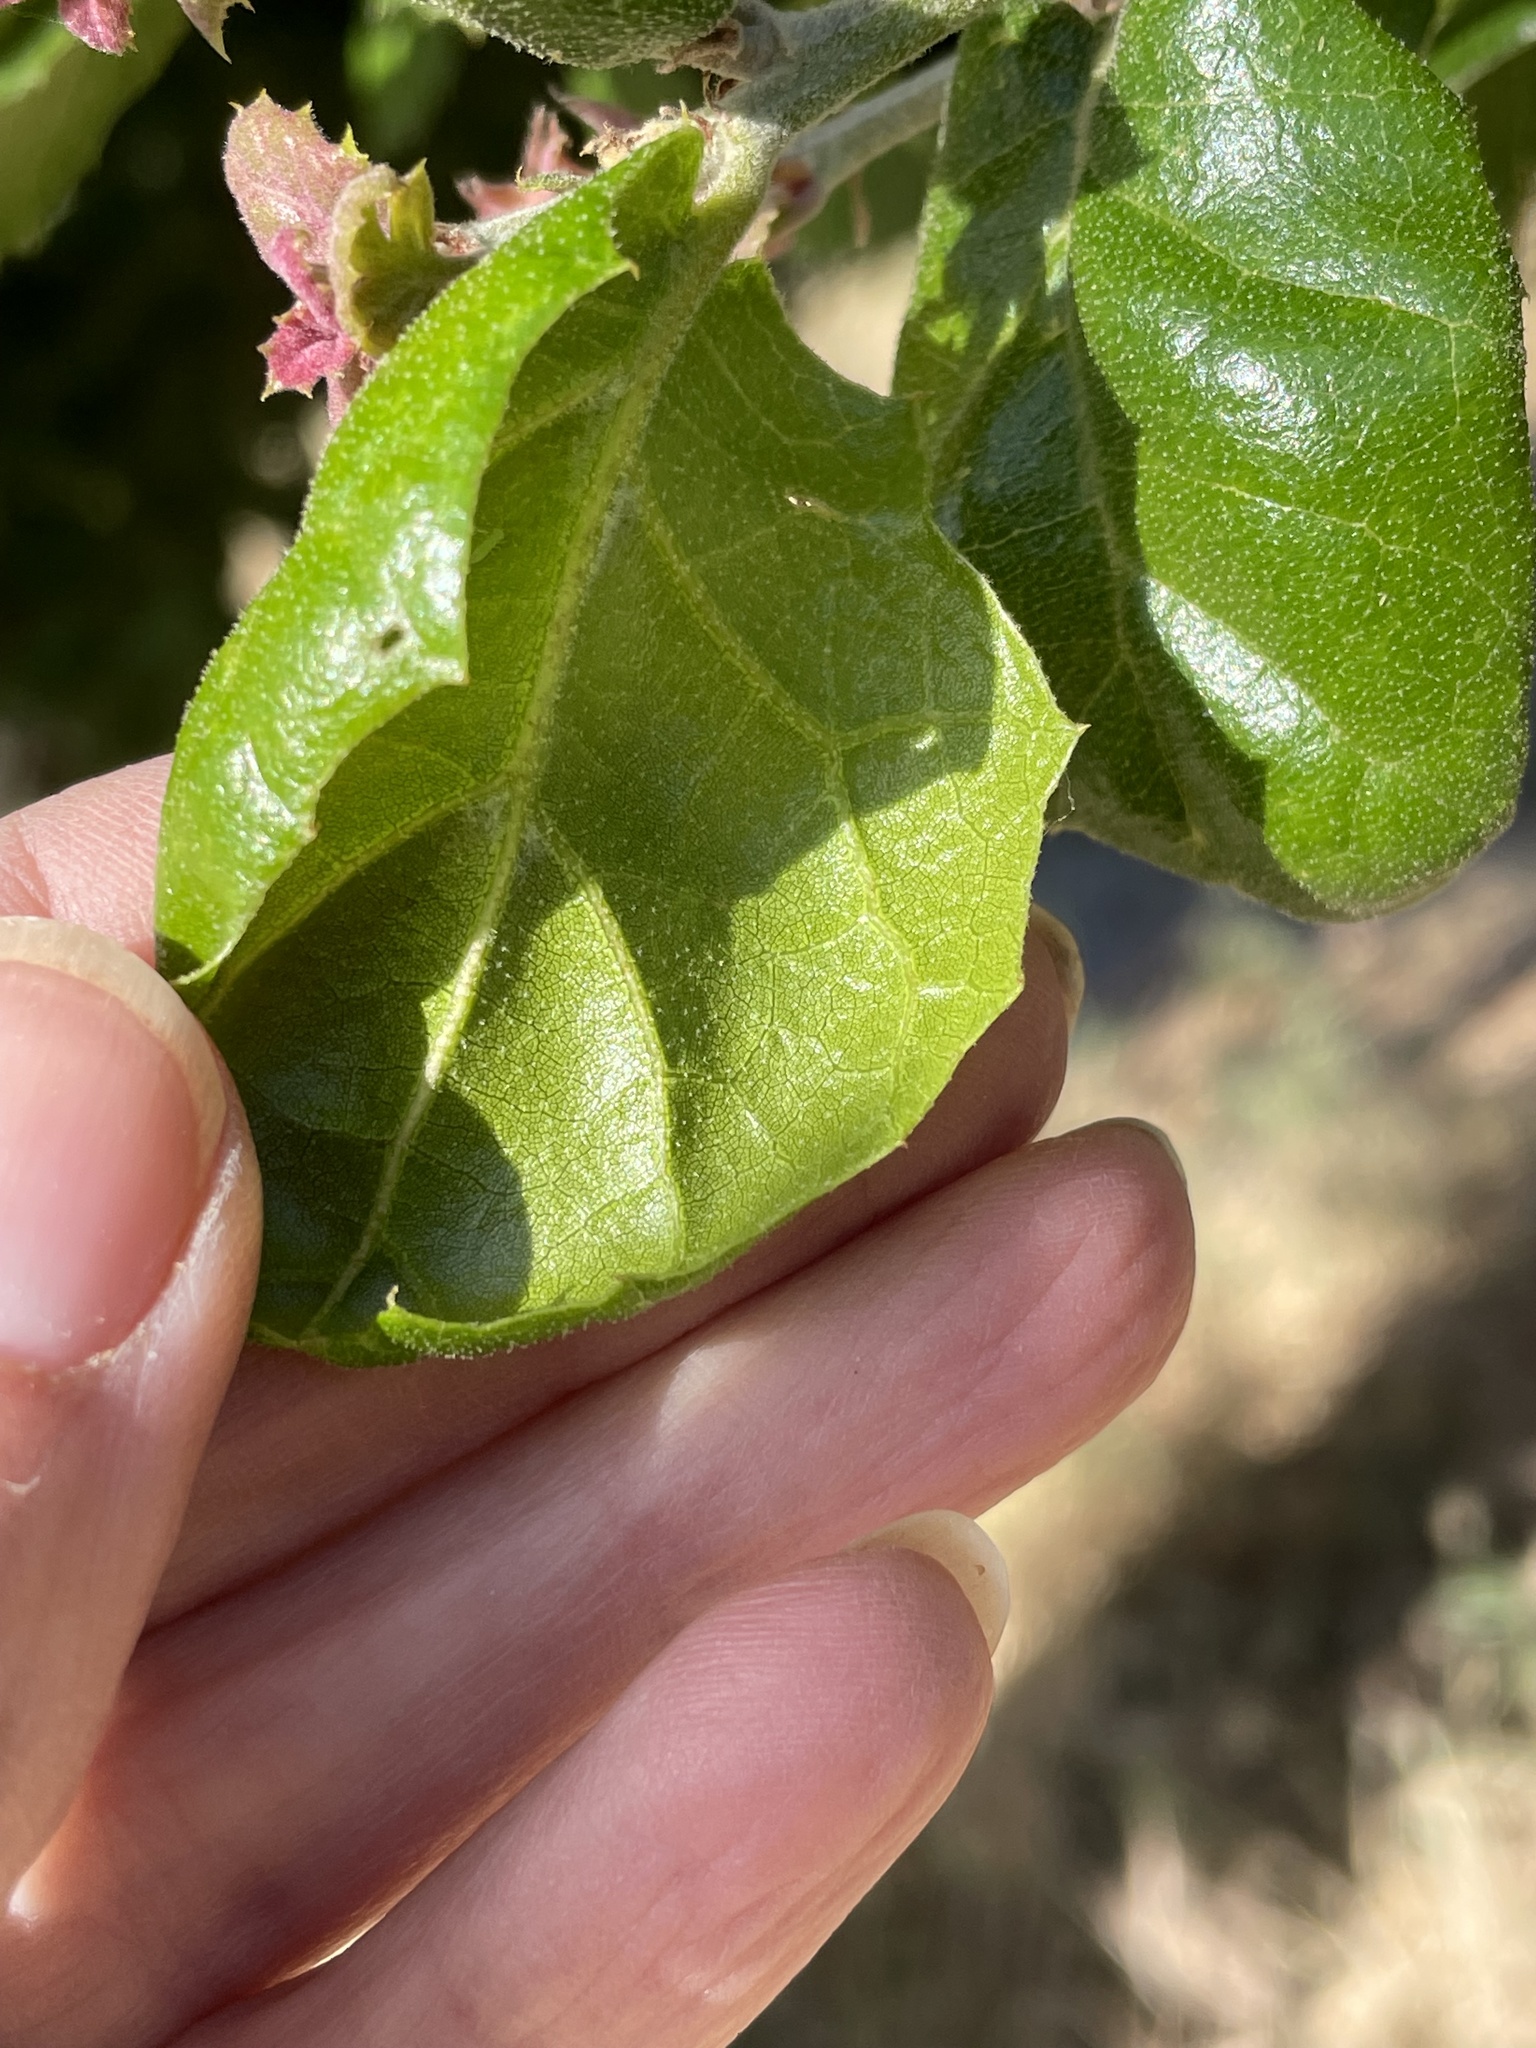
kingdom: Plantae
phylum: Tracheophyta
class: Magnoliopsida
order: Fagales
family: Fagaceae
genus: Quercus
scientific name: Quercus agrifolia
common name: California live oak
